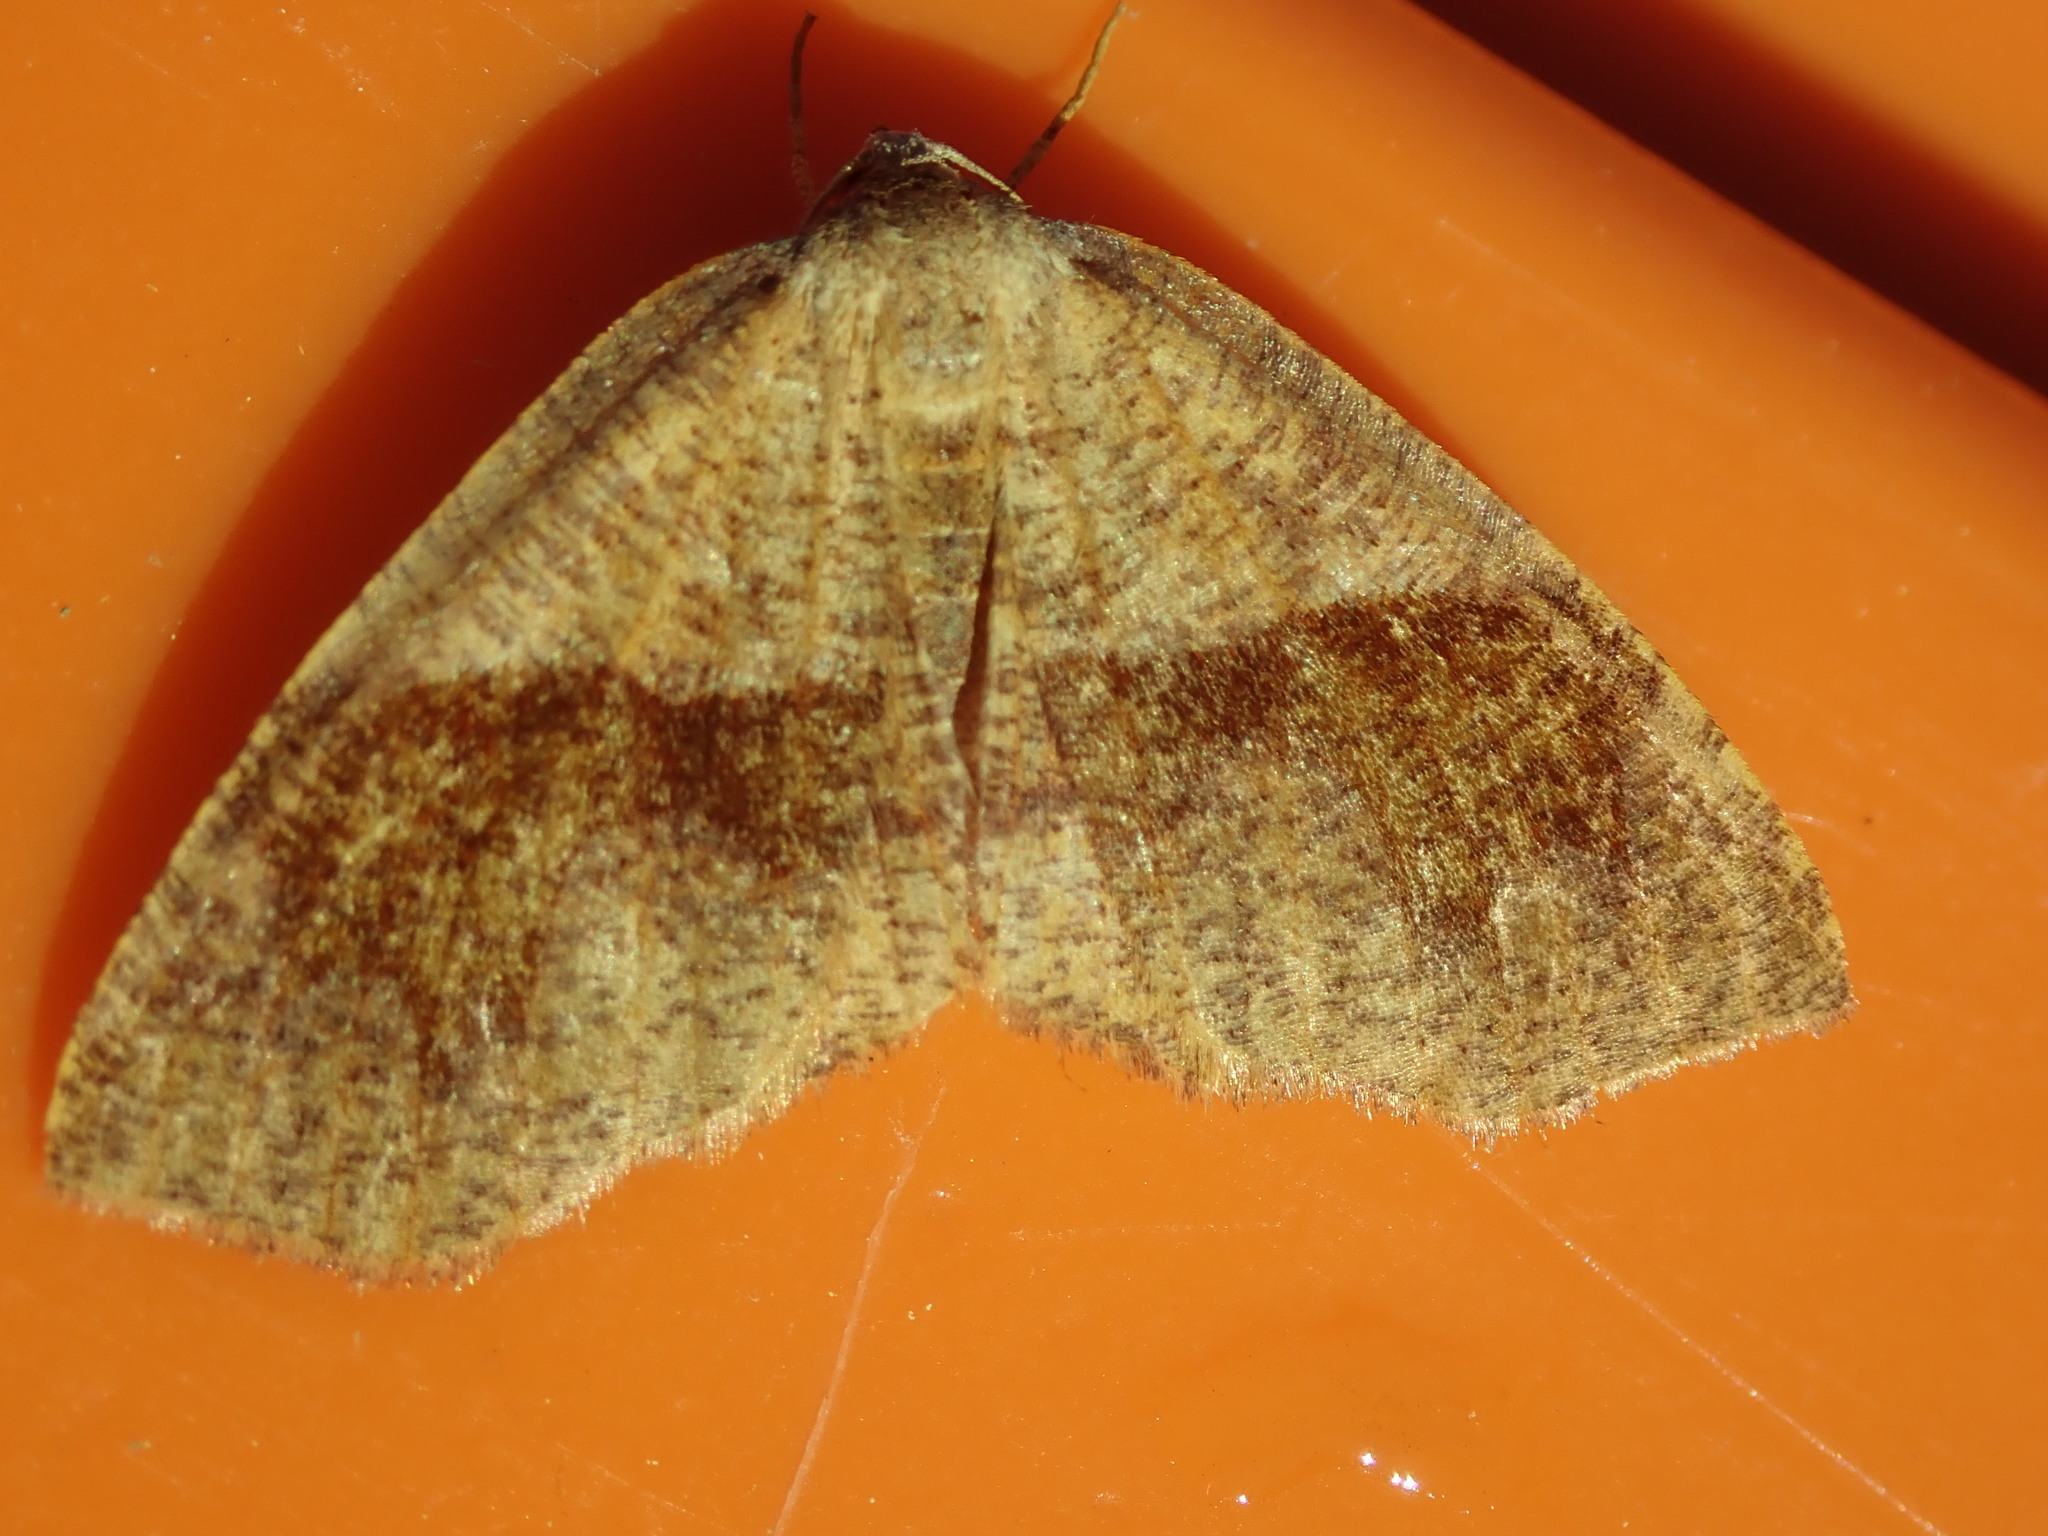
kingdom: Animalia
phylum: Arthropoda
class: Insecta
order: Lepidoptera
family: Geometridae
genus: Plagodis
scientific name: Plagodis pulveraria
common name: Barred umber
